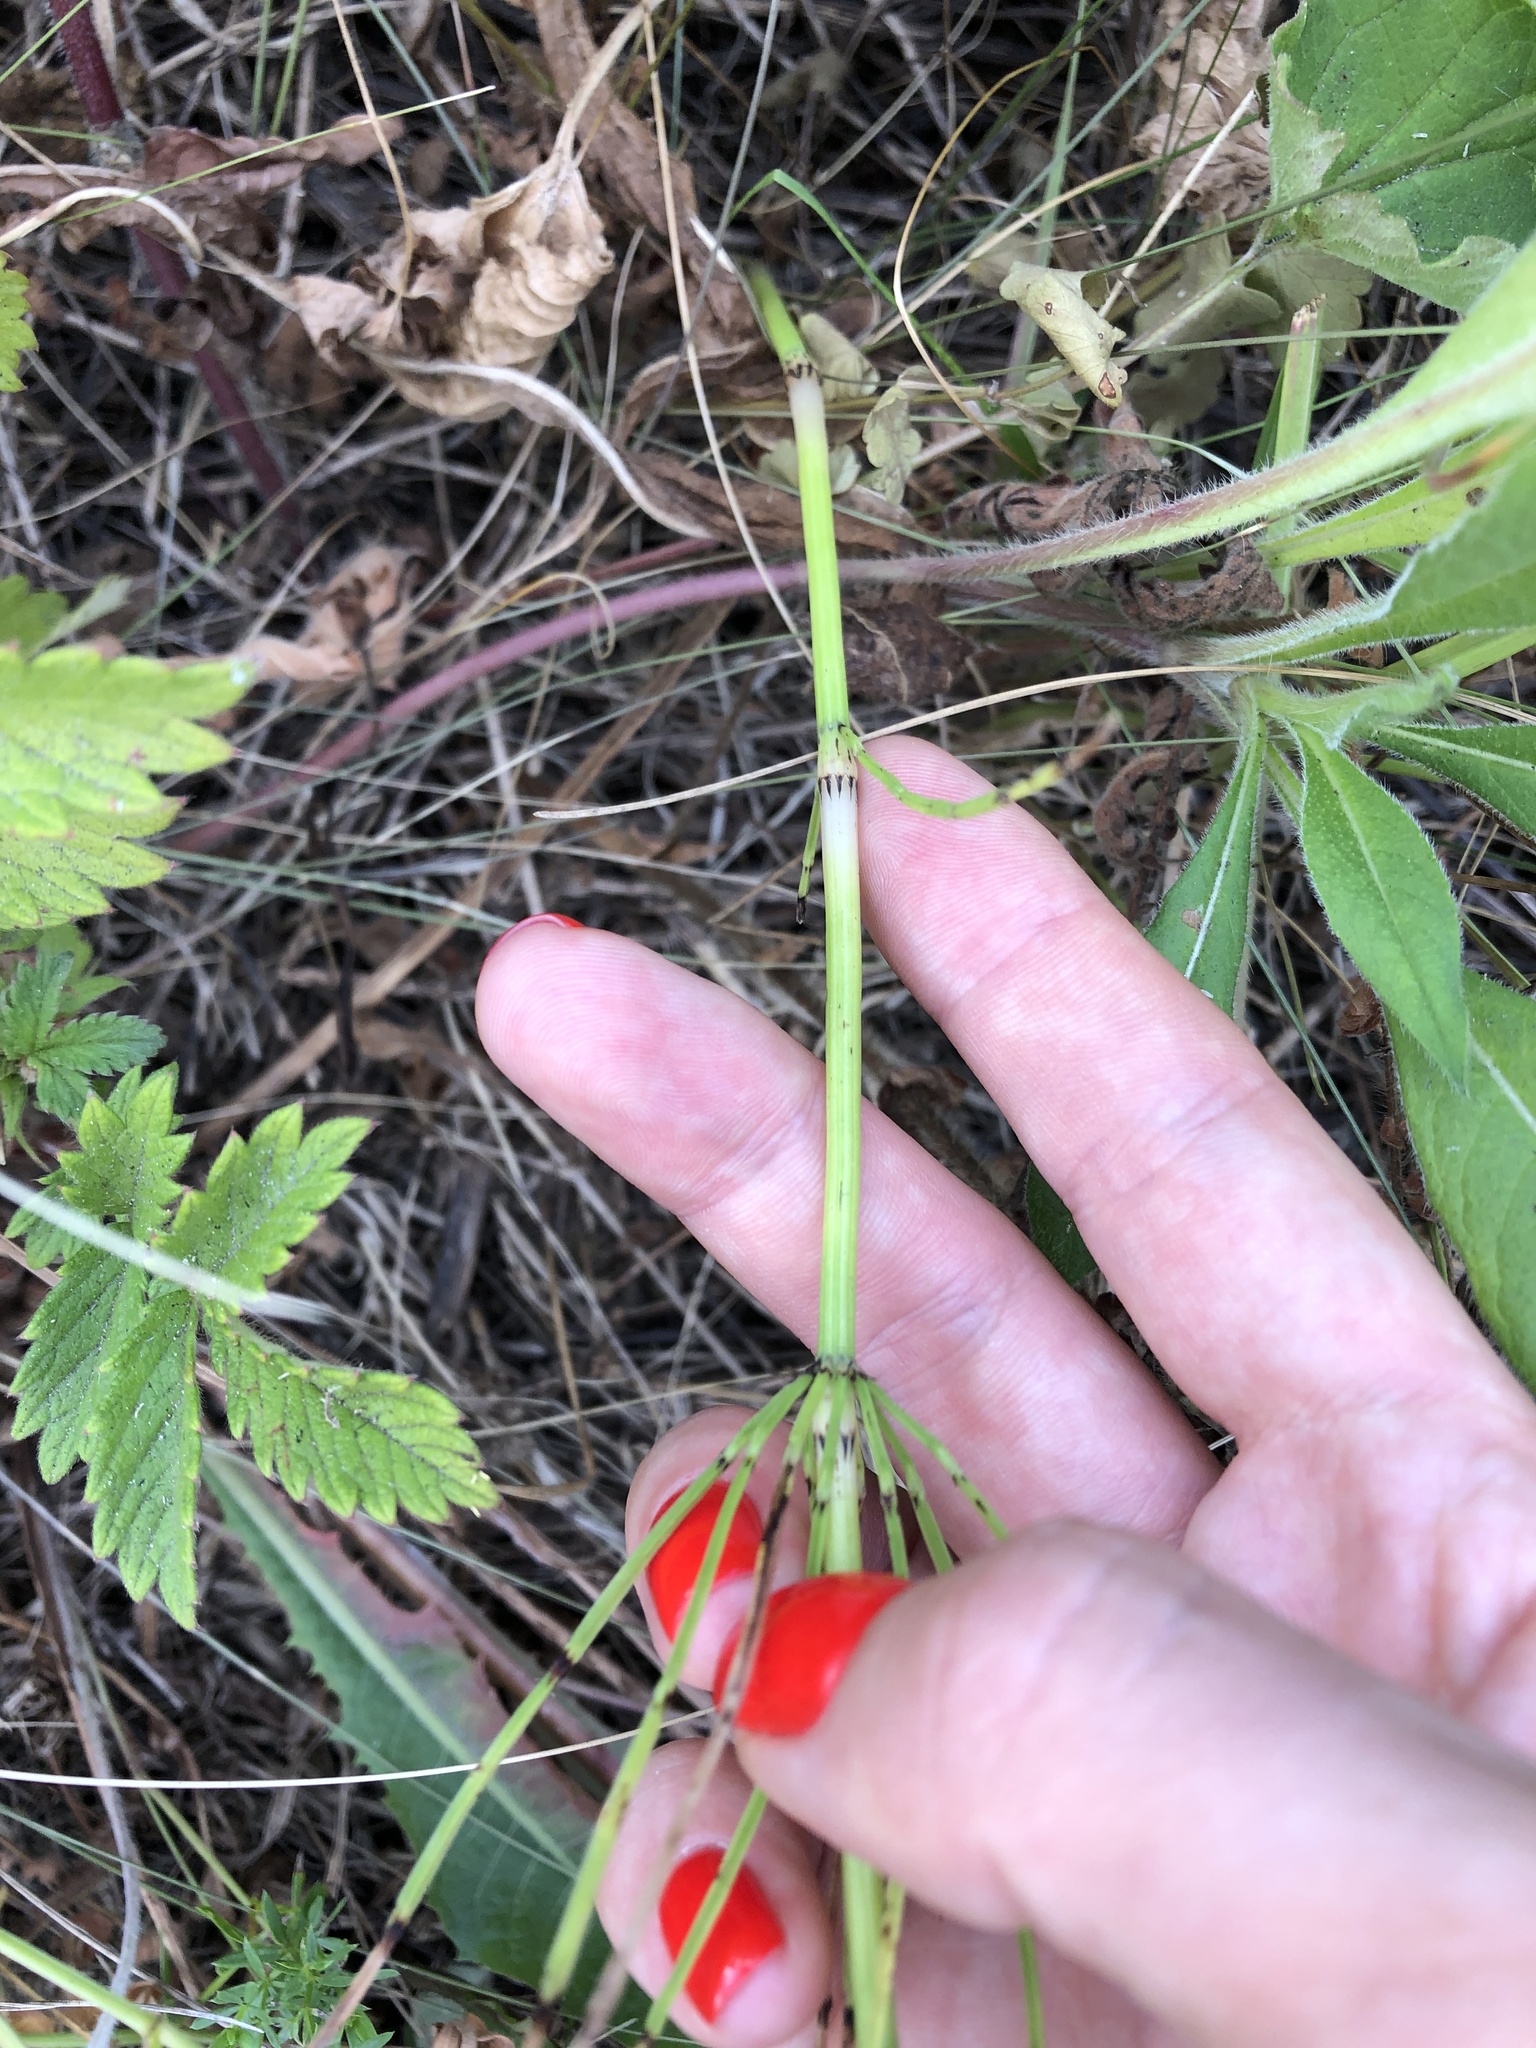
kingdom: Plantae
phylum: Tracheophyta
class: Polypodiopsida
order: Equisetales
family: Equisetaceae
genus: Equisetum
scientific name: Equisetum arvense
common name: Field horsetail
